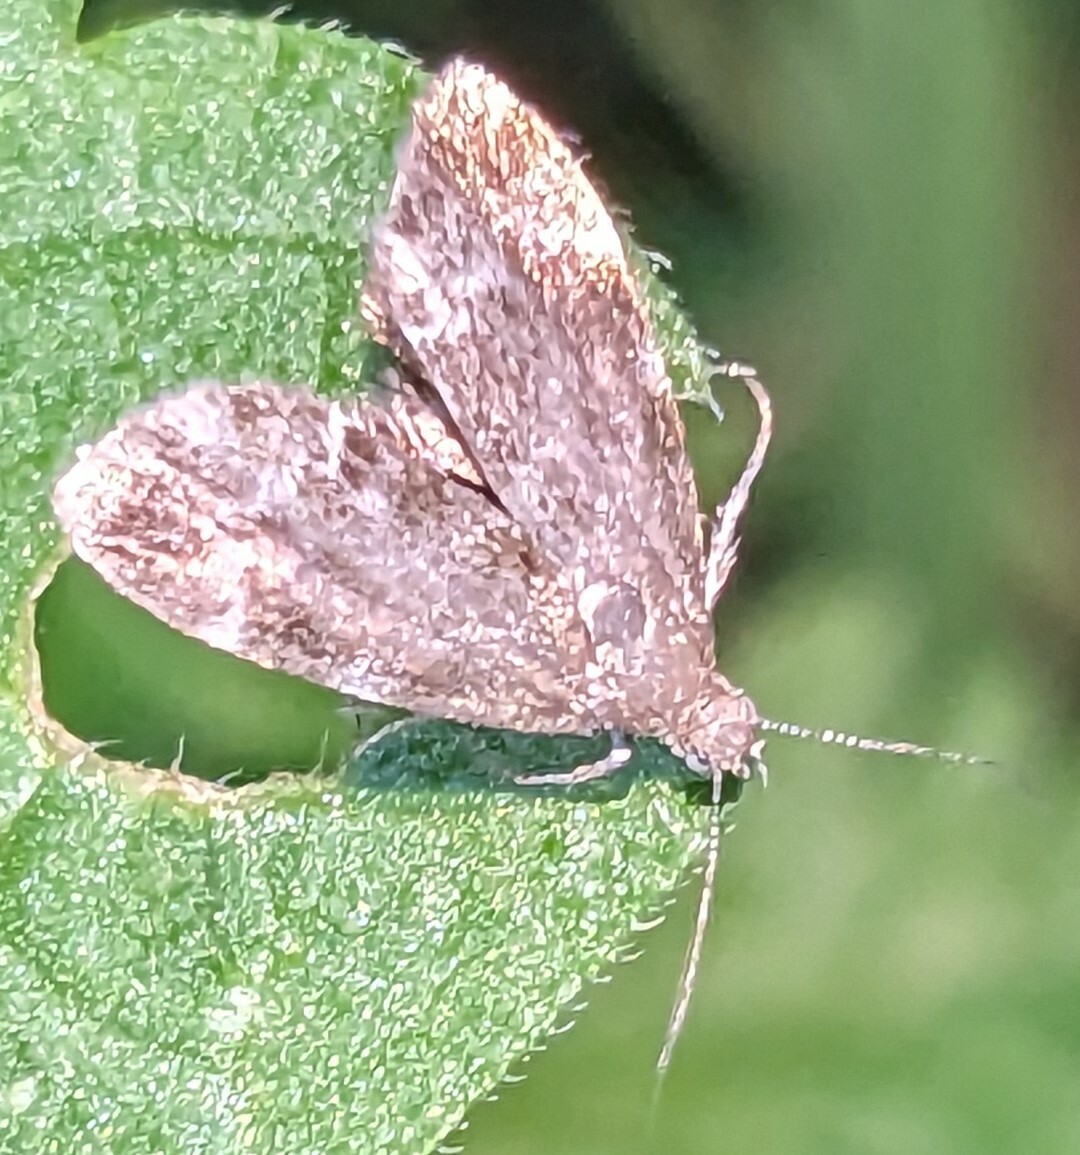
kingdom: Animalia
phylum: Arthropoda
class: Insecta
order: Lepidoptera
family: Choreutidae
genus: Anthophila
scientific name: Anthophila fabriciana
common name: Nettle-tap
